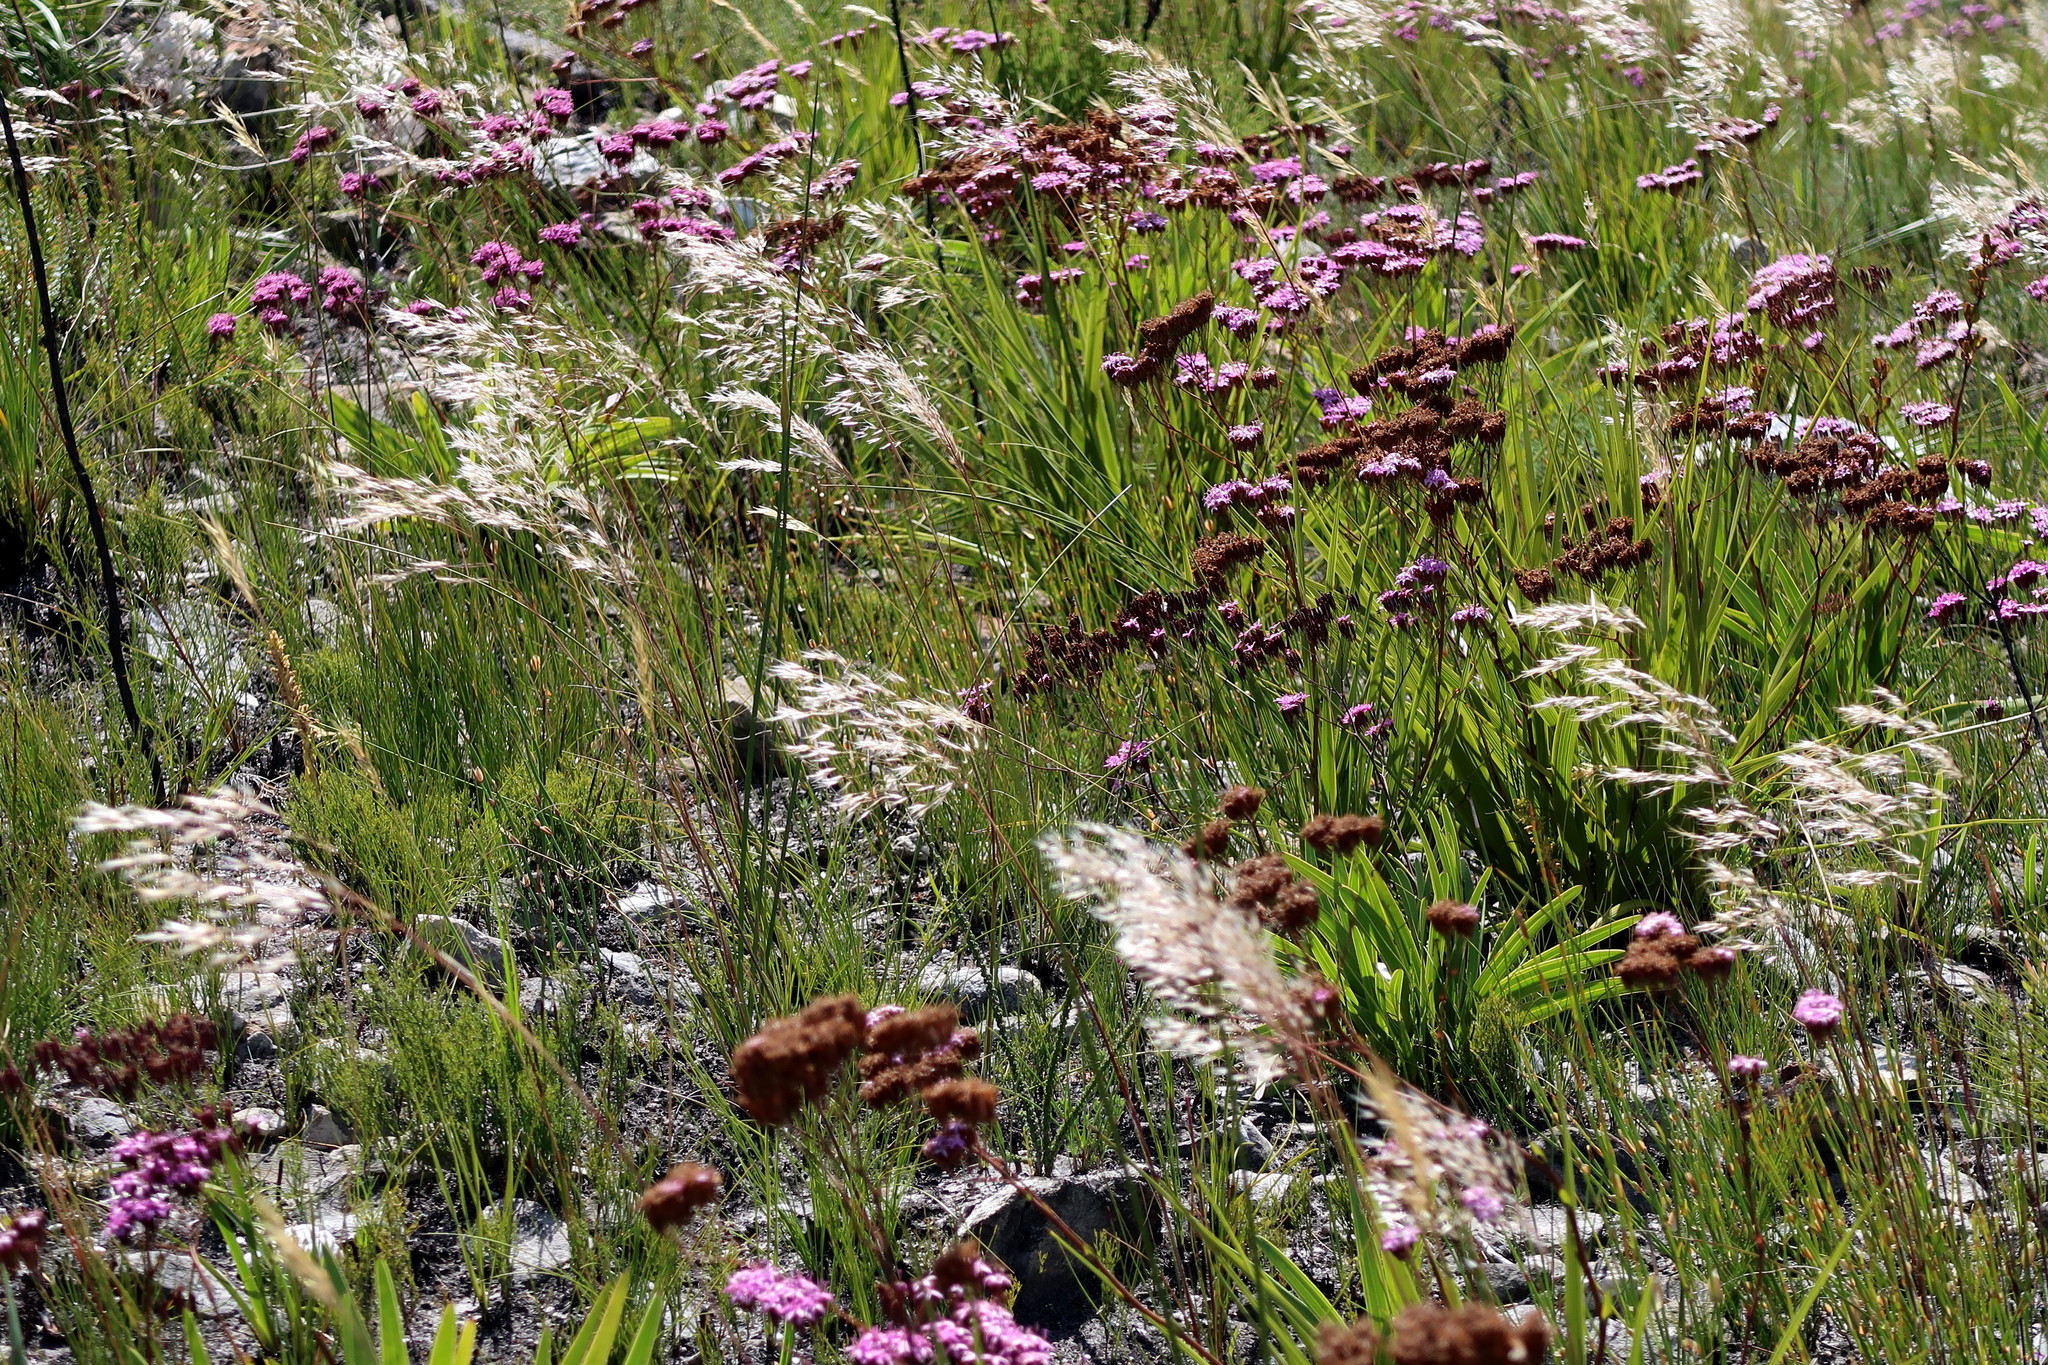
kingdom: Plantae
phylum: Tracheophyta
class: Magnoliopsida
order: Asterales
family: Asteraceae
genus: Corymbium
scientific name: Corymbium glabrum
